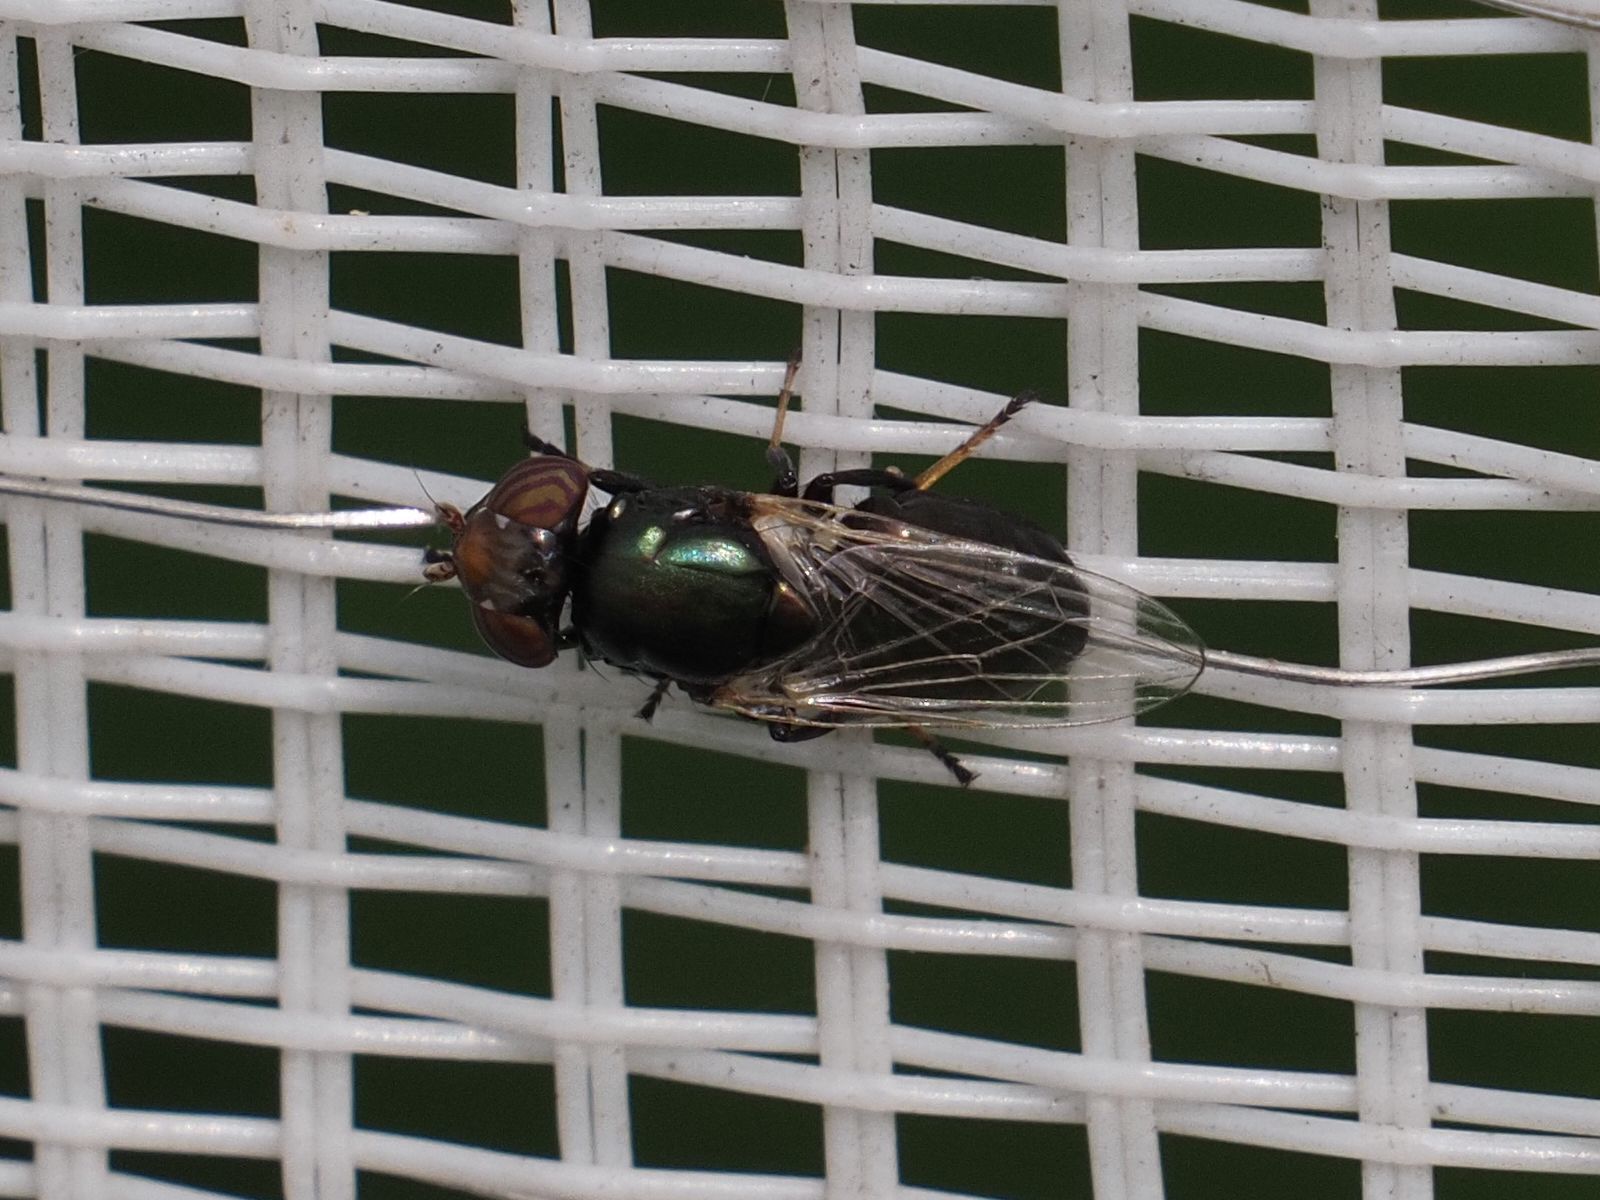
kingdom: Animalia
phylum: Arthropoda
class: Insecta
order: Diptera
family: Ulidiidae
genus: Physiphora
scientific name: Physiphora alceae
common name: Picture-winged fly
